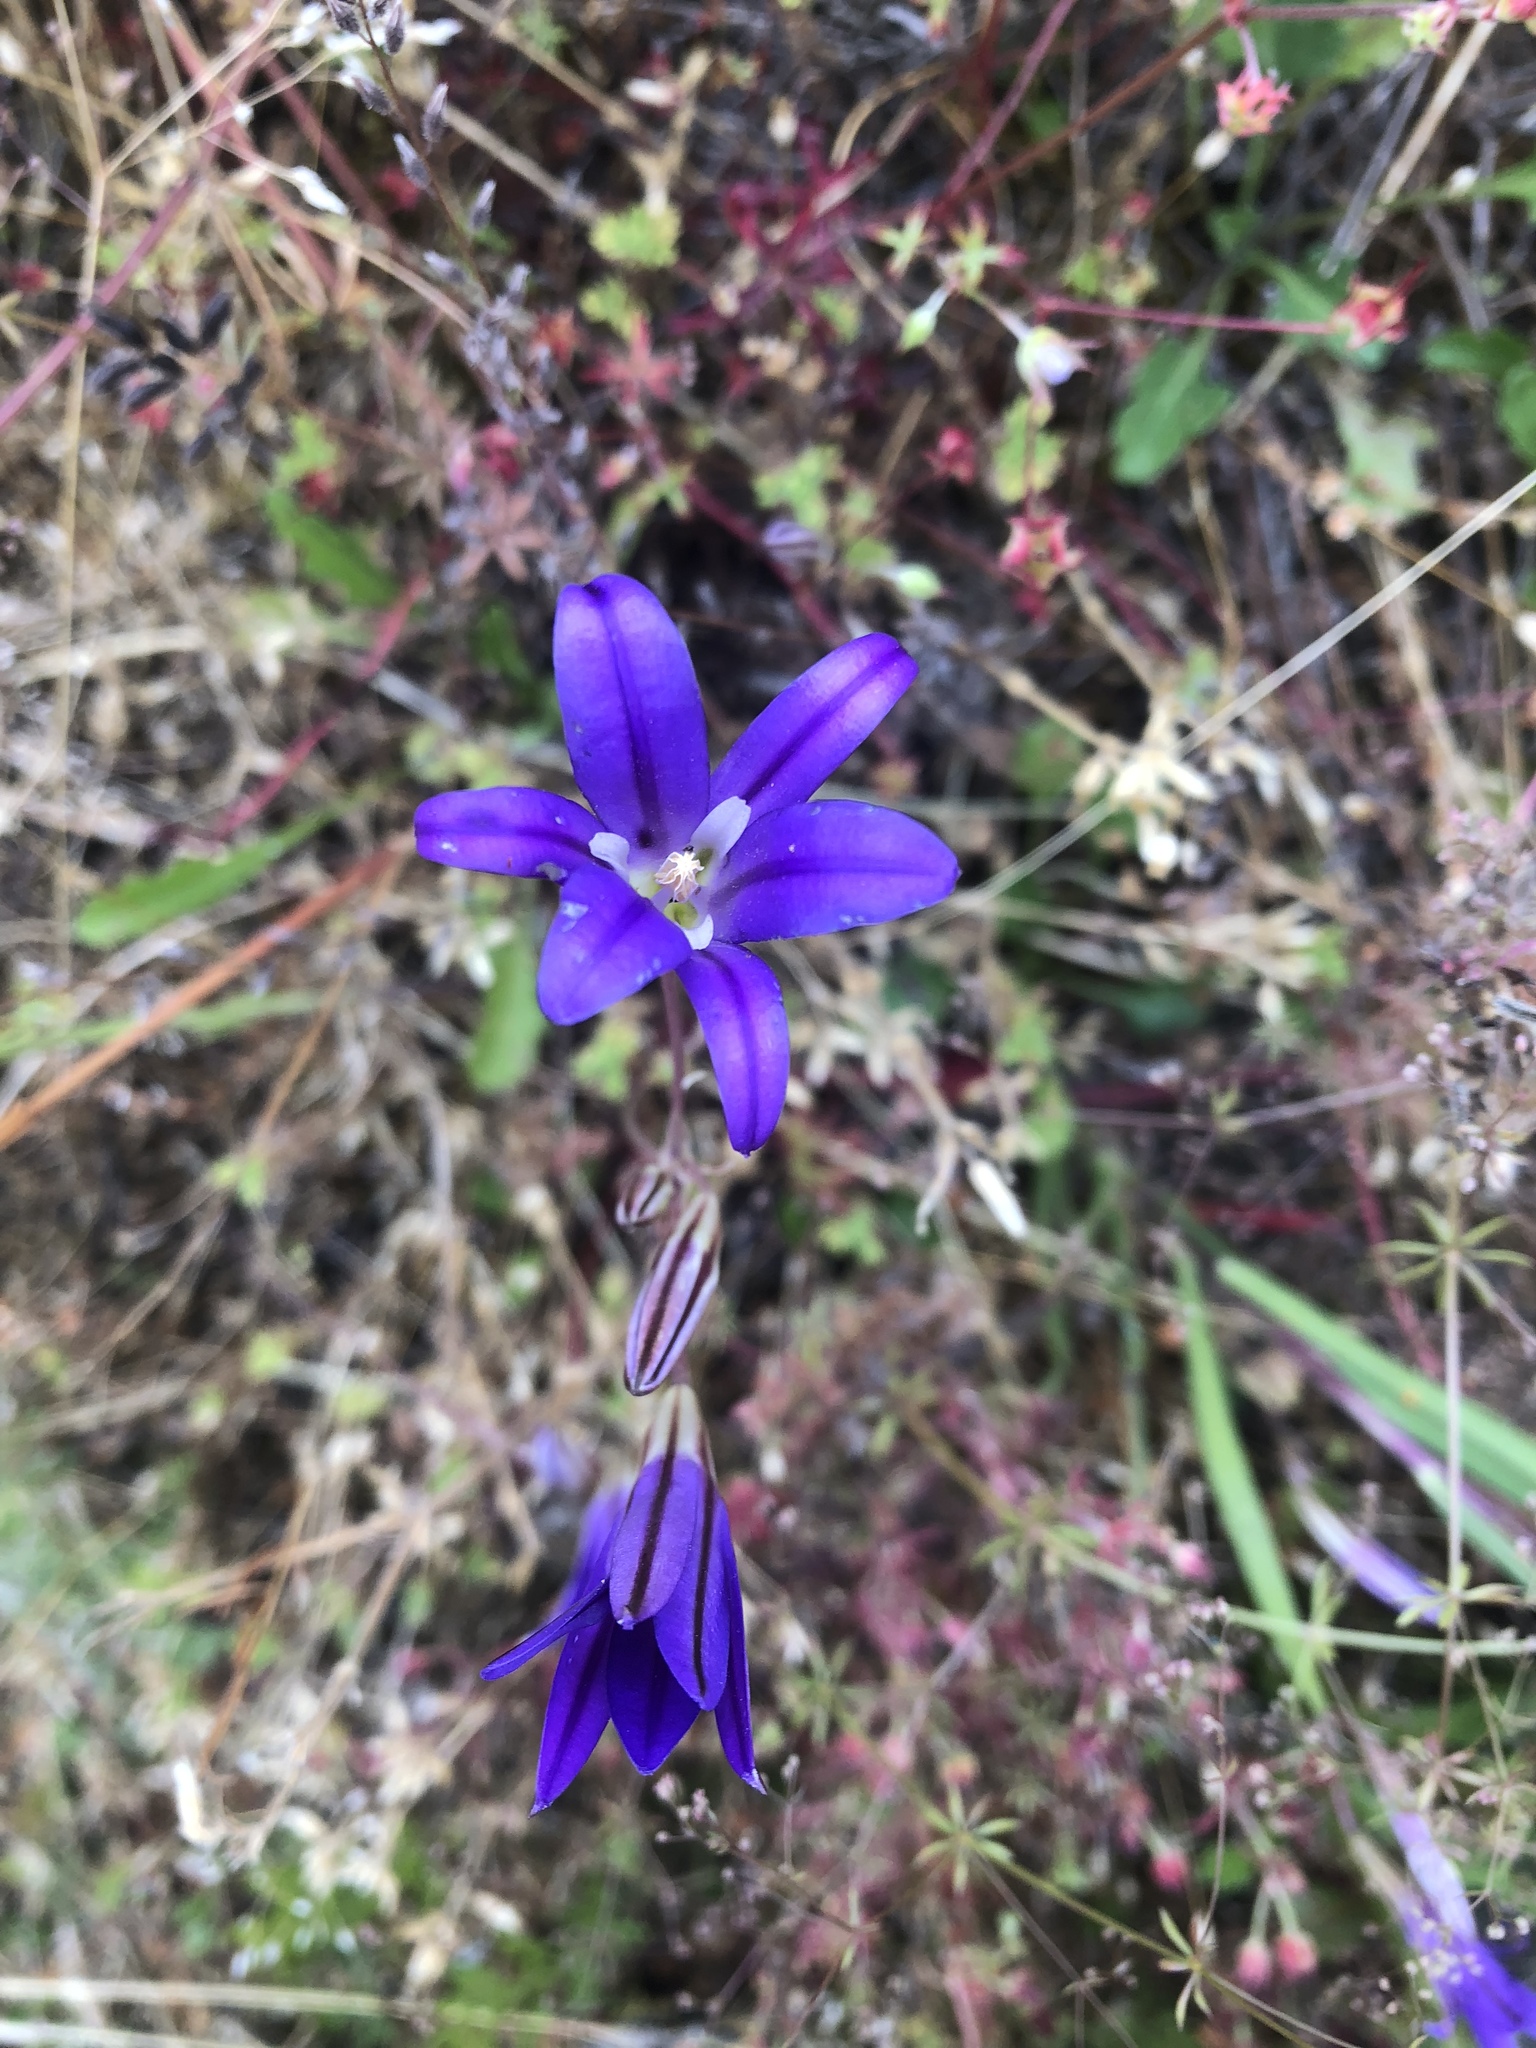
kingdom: Plantae
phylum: Tracheophyta
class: Liliopsida
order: Asparagales
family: Asparagaceae
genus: Brodiaea
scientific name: Brodiaea elegans
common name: Elegant cluster-lily
